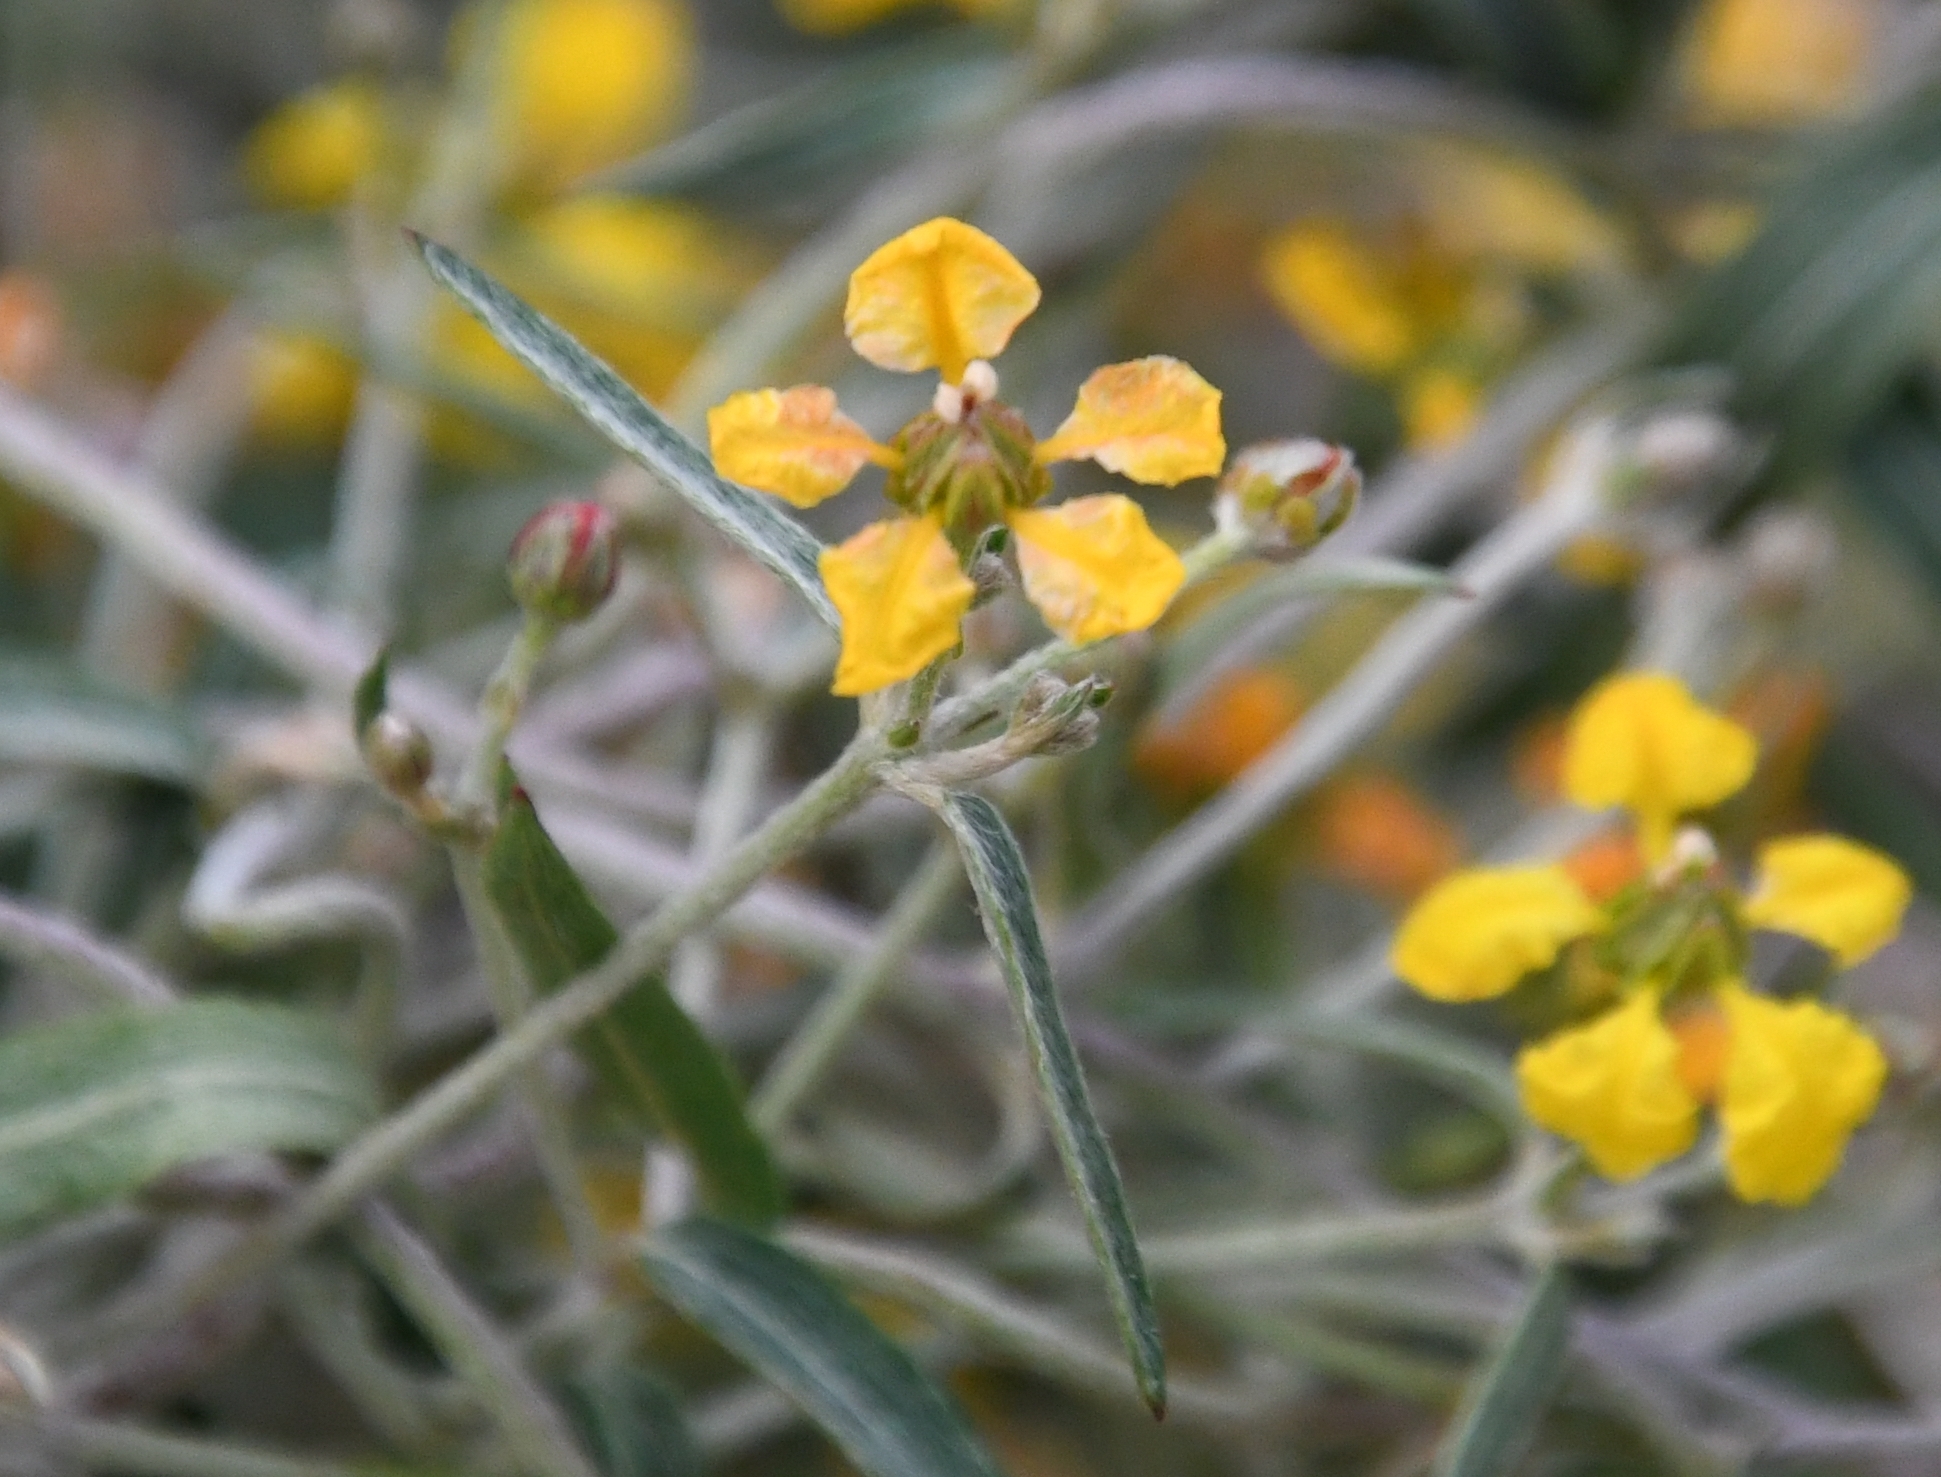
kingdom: Plantae
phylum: Tracheophyta
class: Magnoliopsida
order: Malpighiales
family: Malpighiaceae
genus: Cottsia
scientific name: Cottsia gracilis
